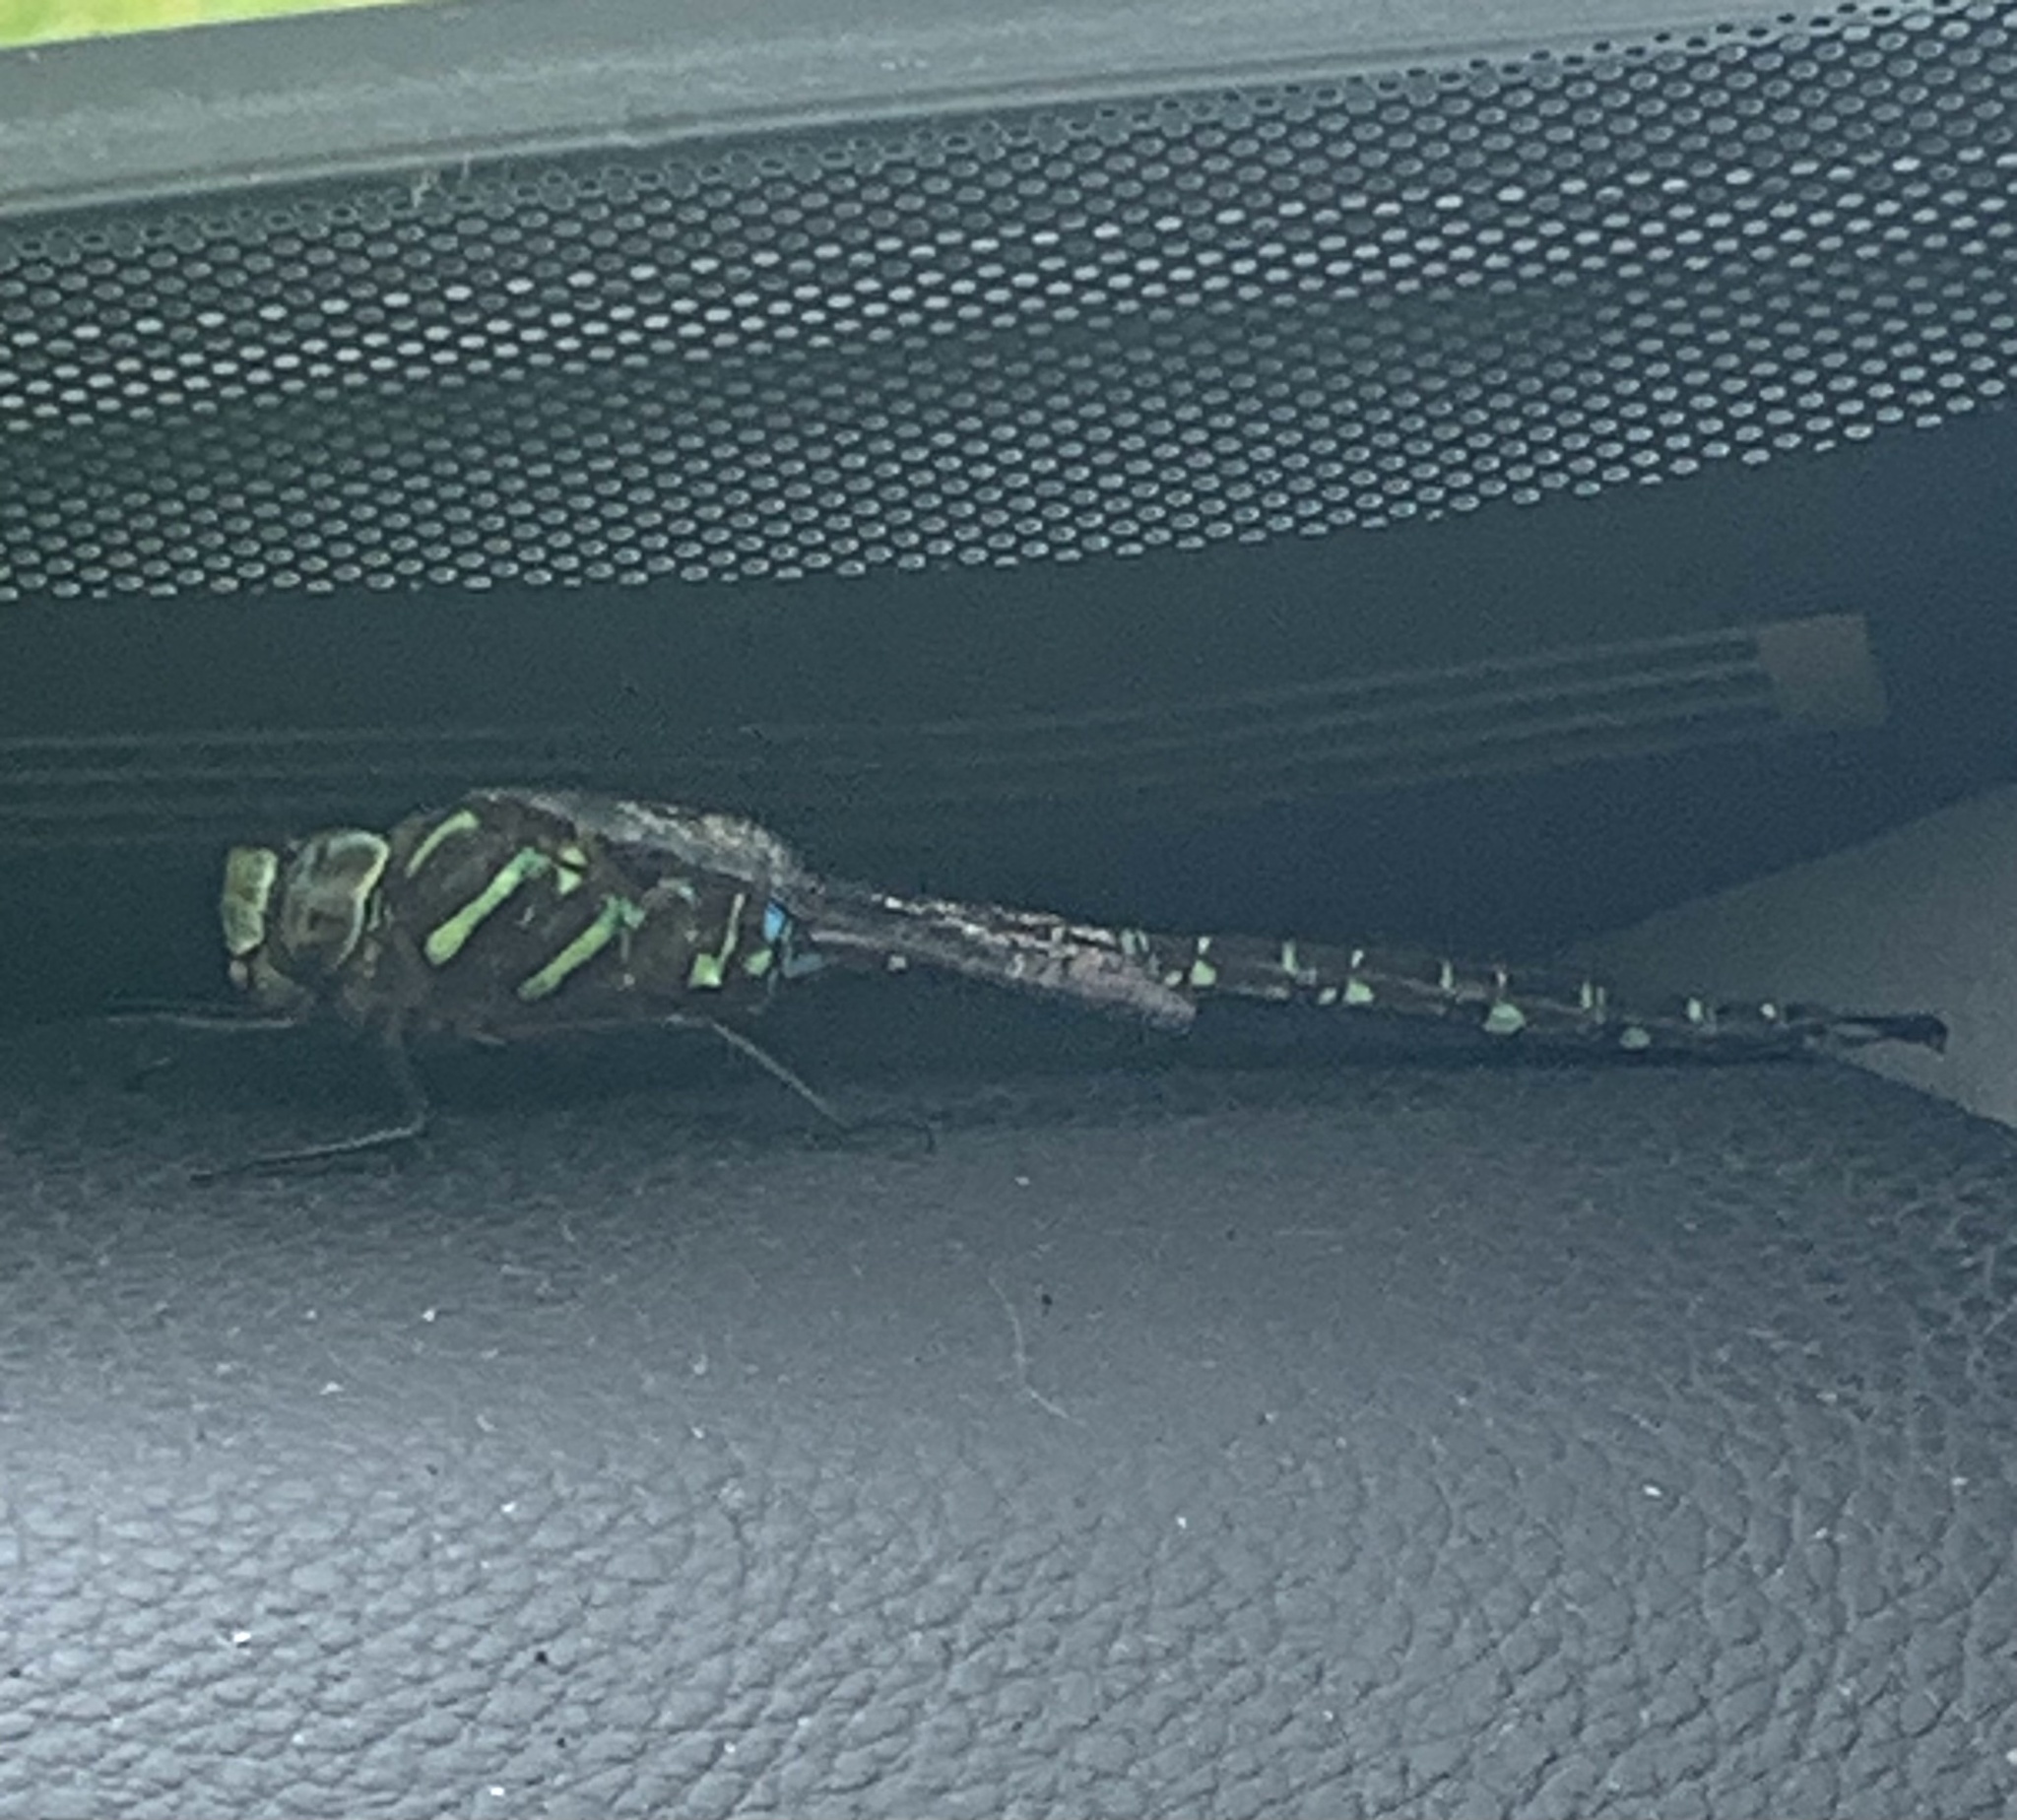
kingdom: Animalia
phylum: Arthropoda
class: Insecta
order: Odonata
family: Aeshnidae
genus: Aeshna
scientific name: Aeshna umbrosa
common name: Shadow darner
